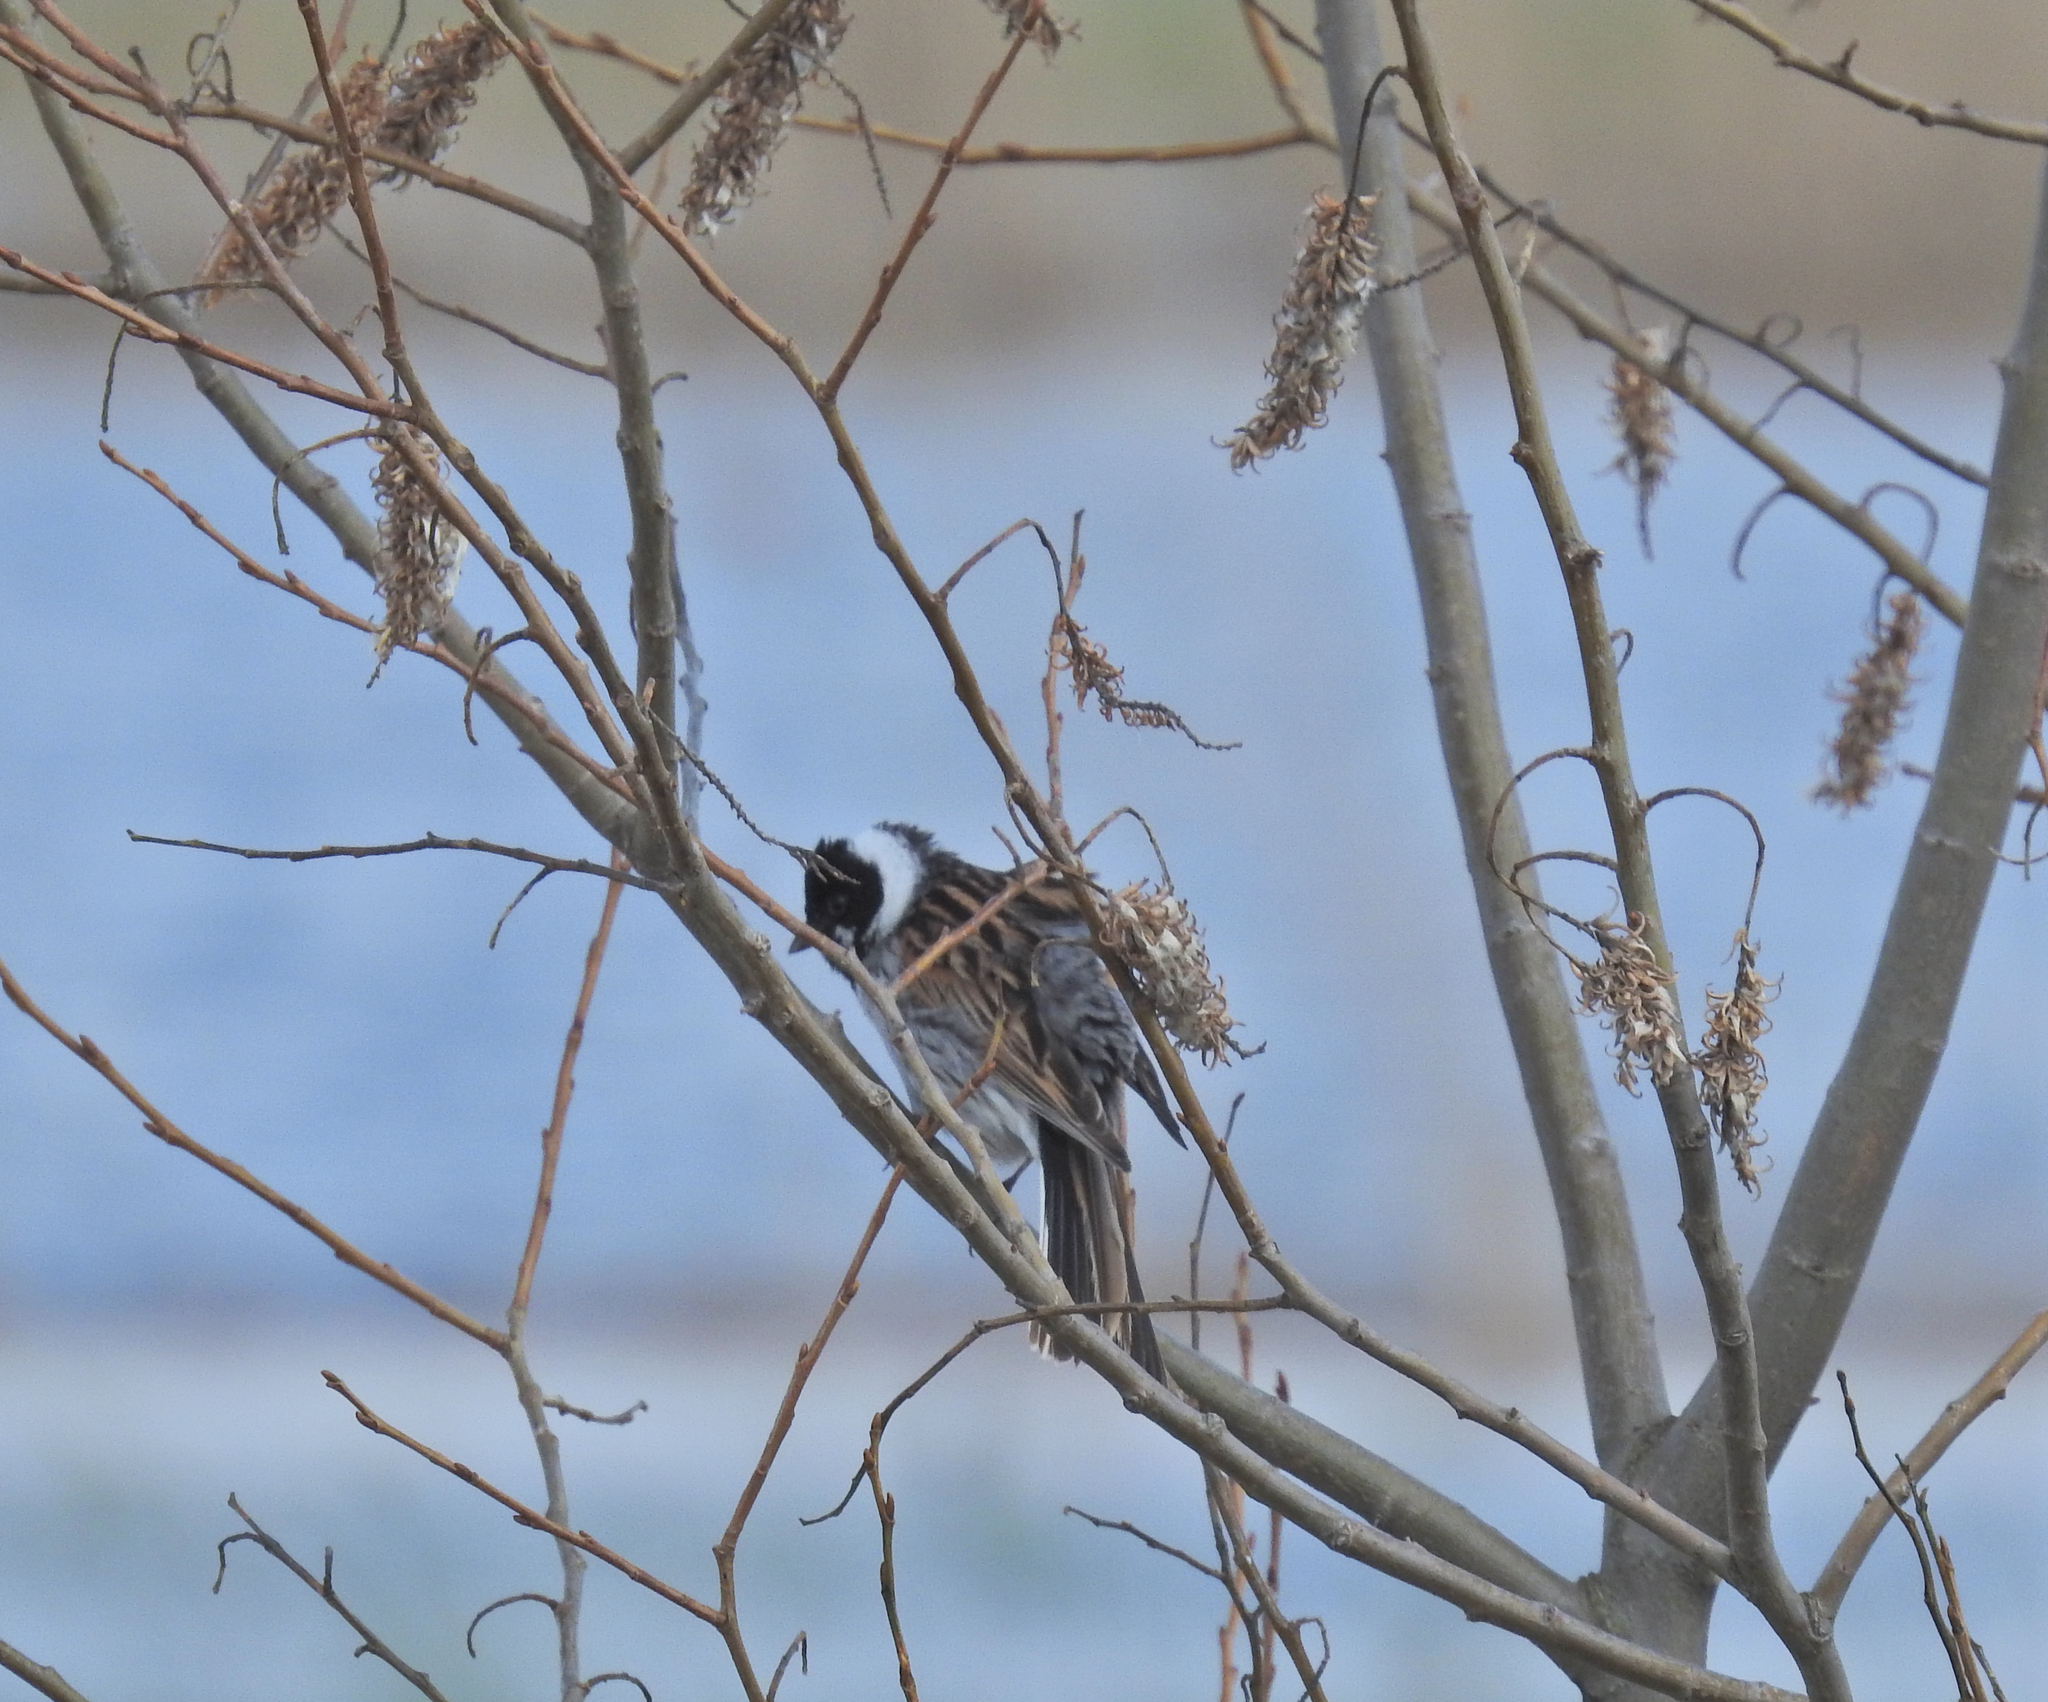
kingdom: Animalia
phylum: Chordata
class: Aves
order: Passeriformes
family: Emberizidae
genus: Emberiza
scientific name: Emberiza schoeniclus
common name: Reed bunting
